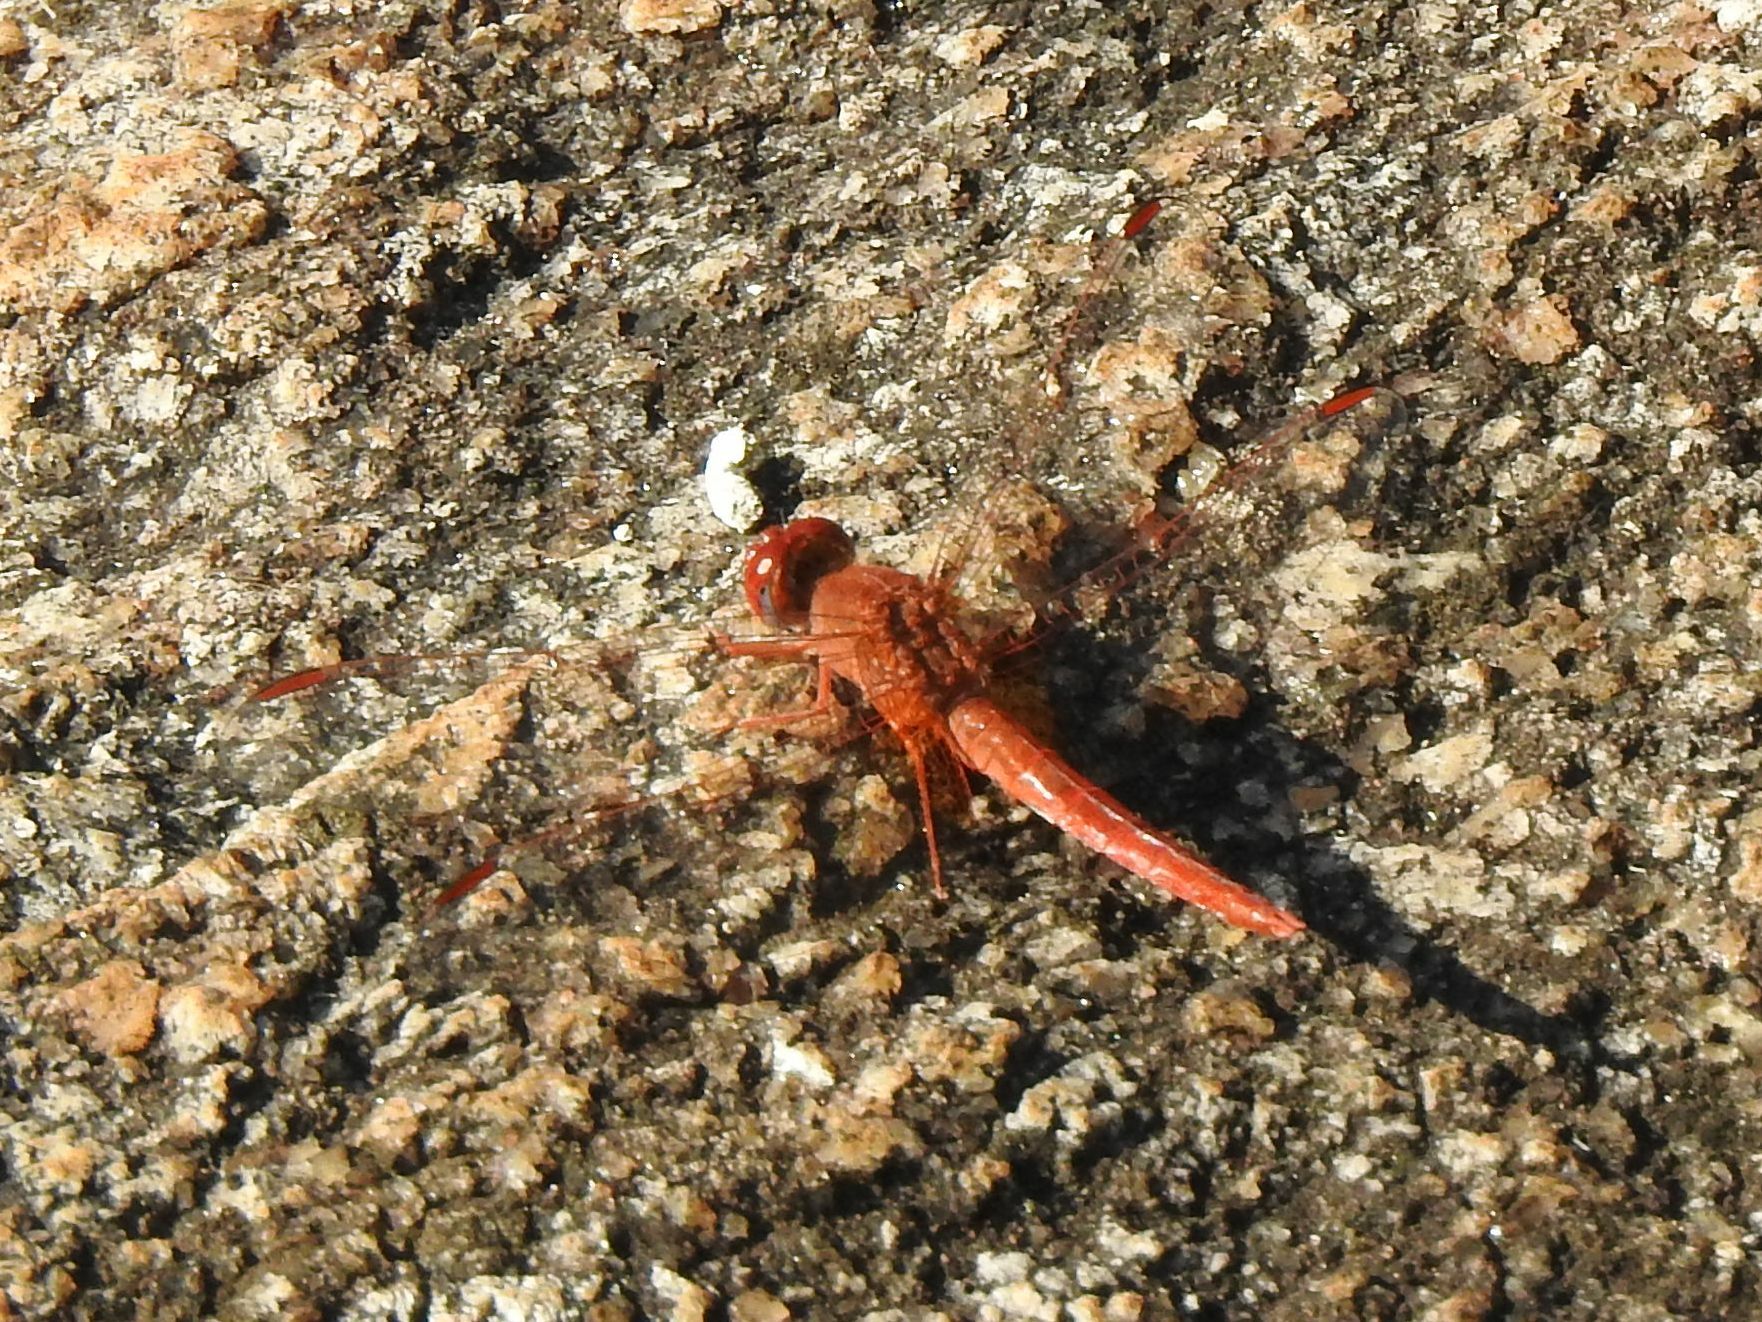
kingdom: Animalia
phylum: Arthropoda
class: Insecta
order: Odonata
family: Libellulidae
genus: Crocothemis
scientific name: Crocothemis sanguinolenta
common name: Little scarlet
